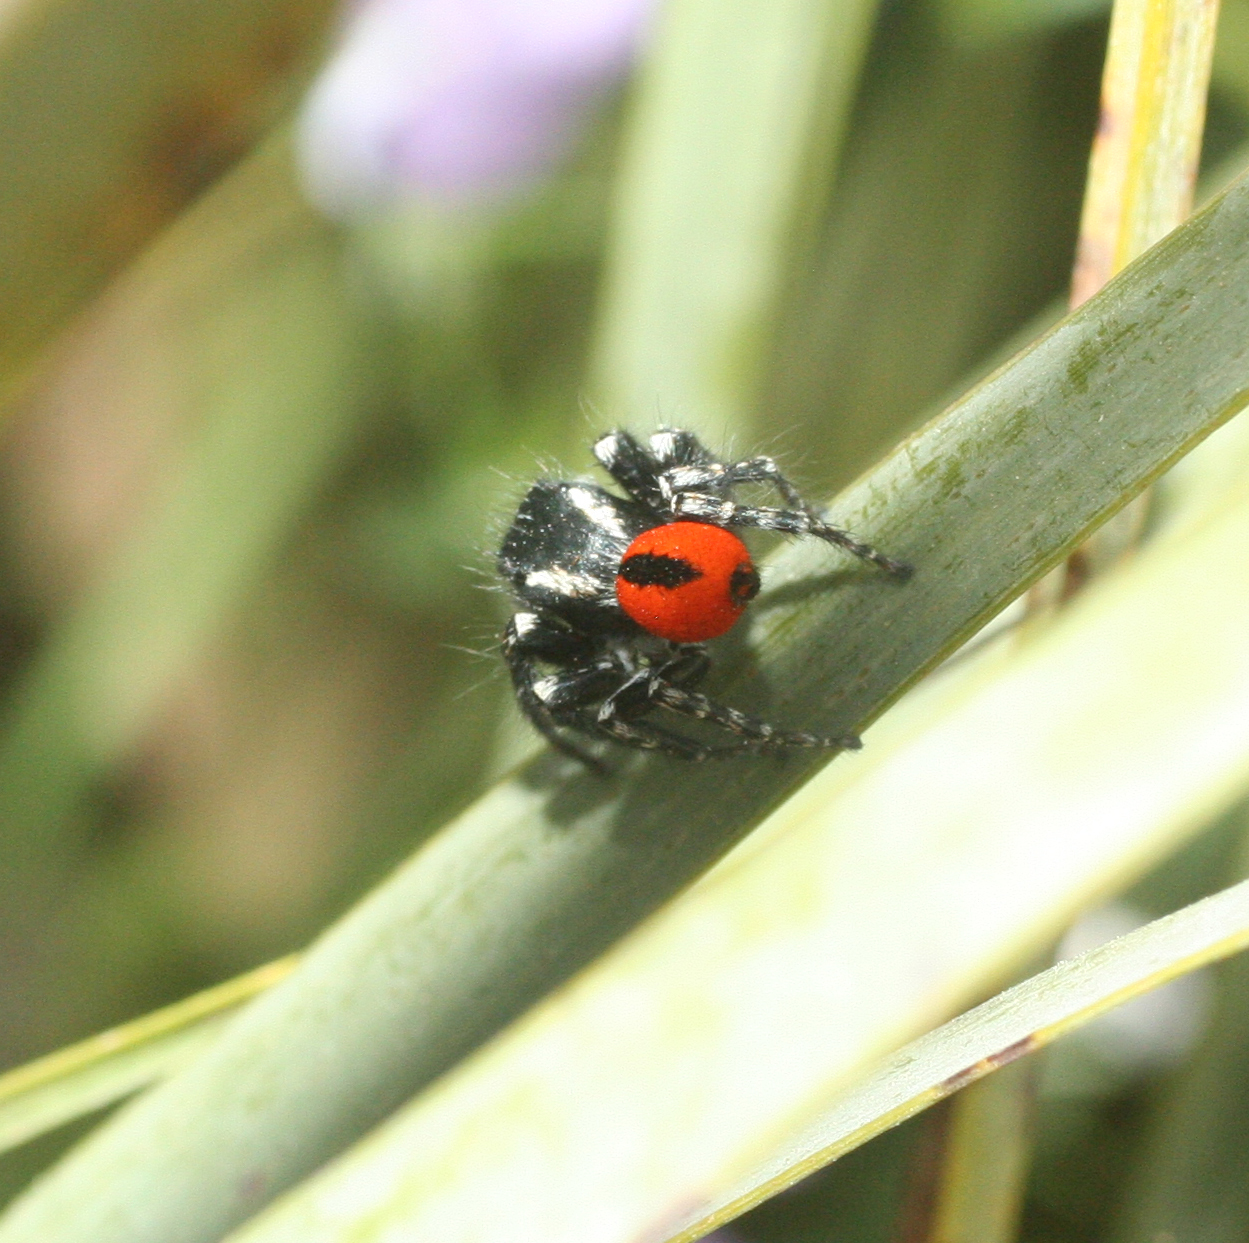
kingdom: Animalia
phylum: Arthropoda
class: Arachnida
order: Araneae
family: Salticidae
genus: Philaeus
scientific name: Philaeus chrysops
